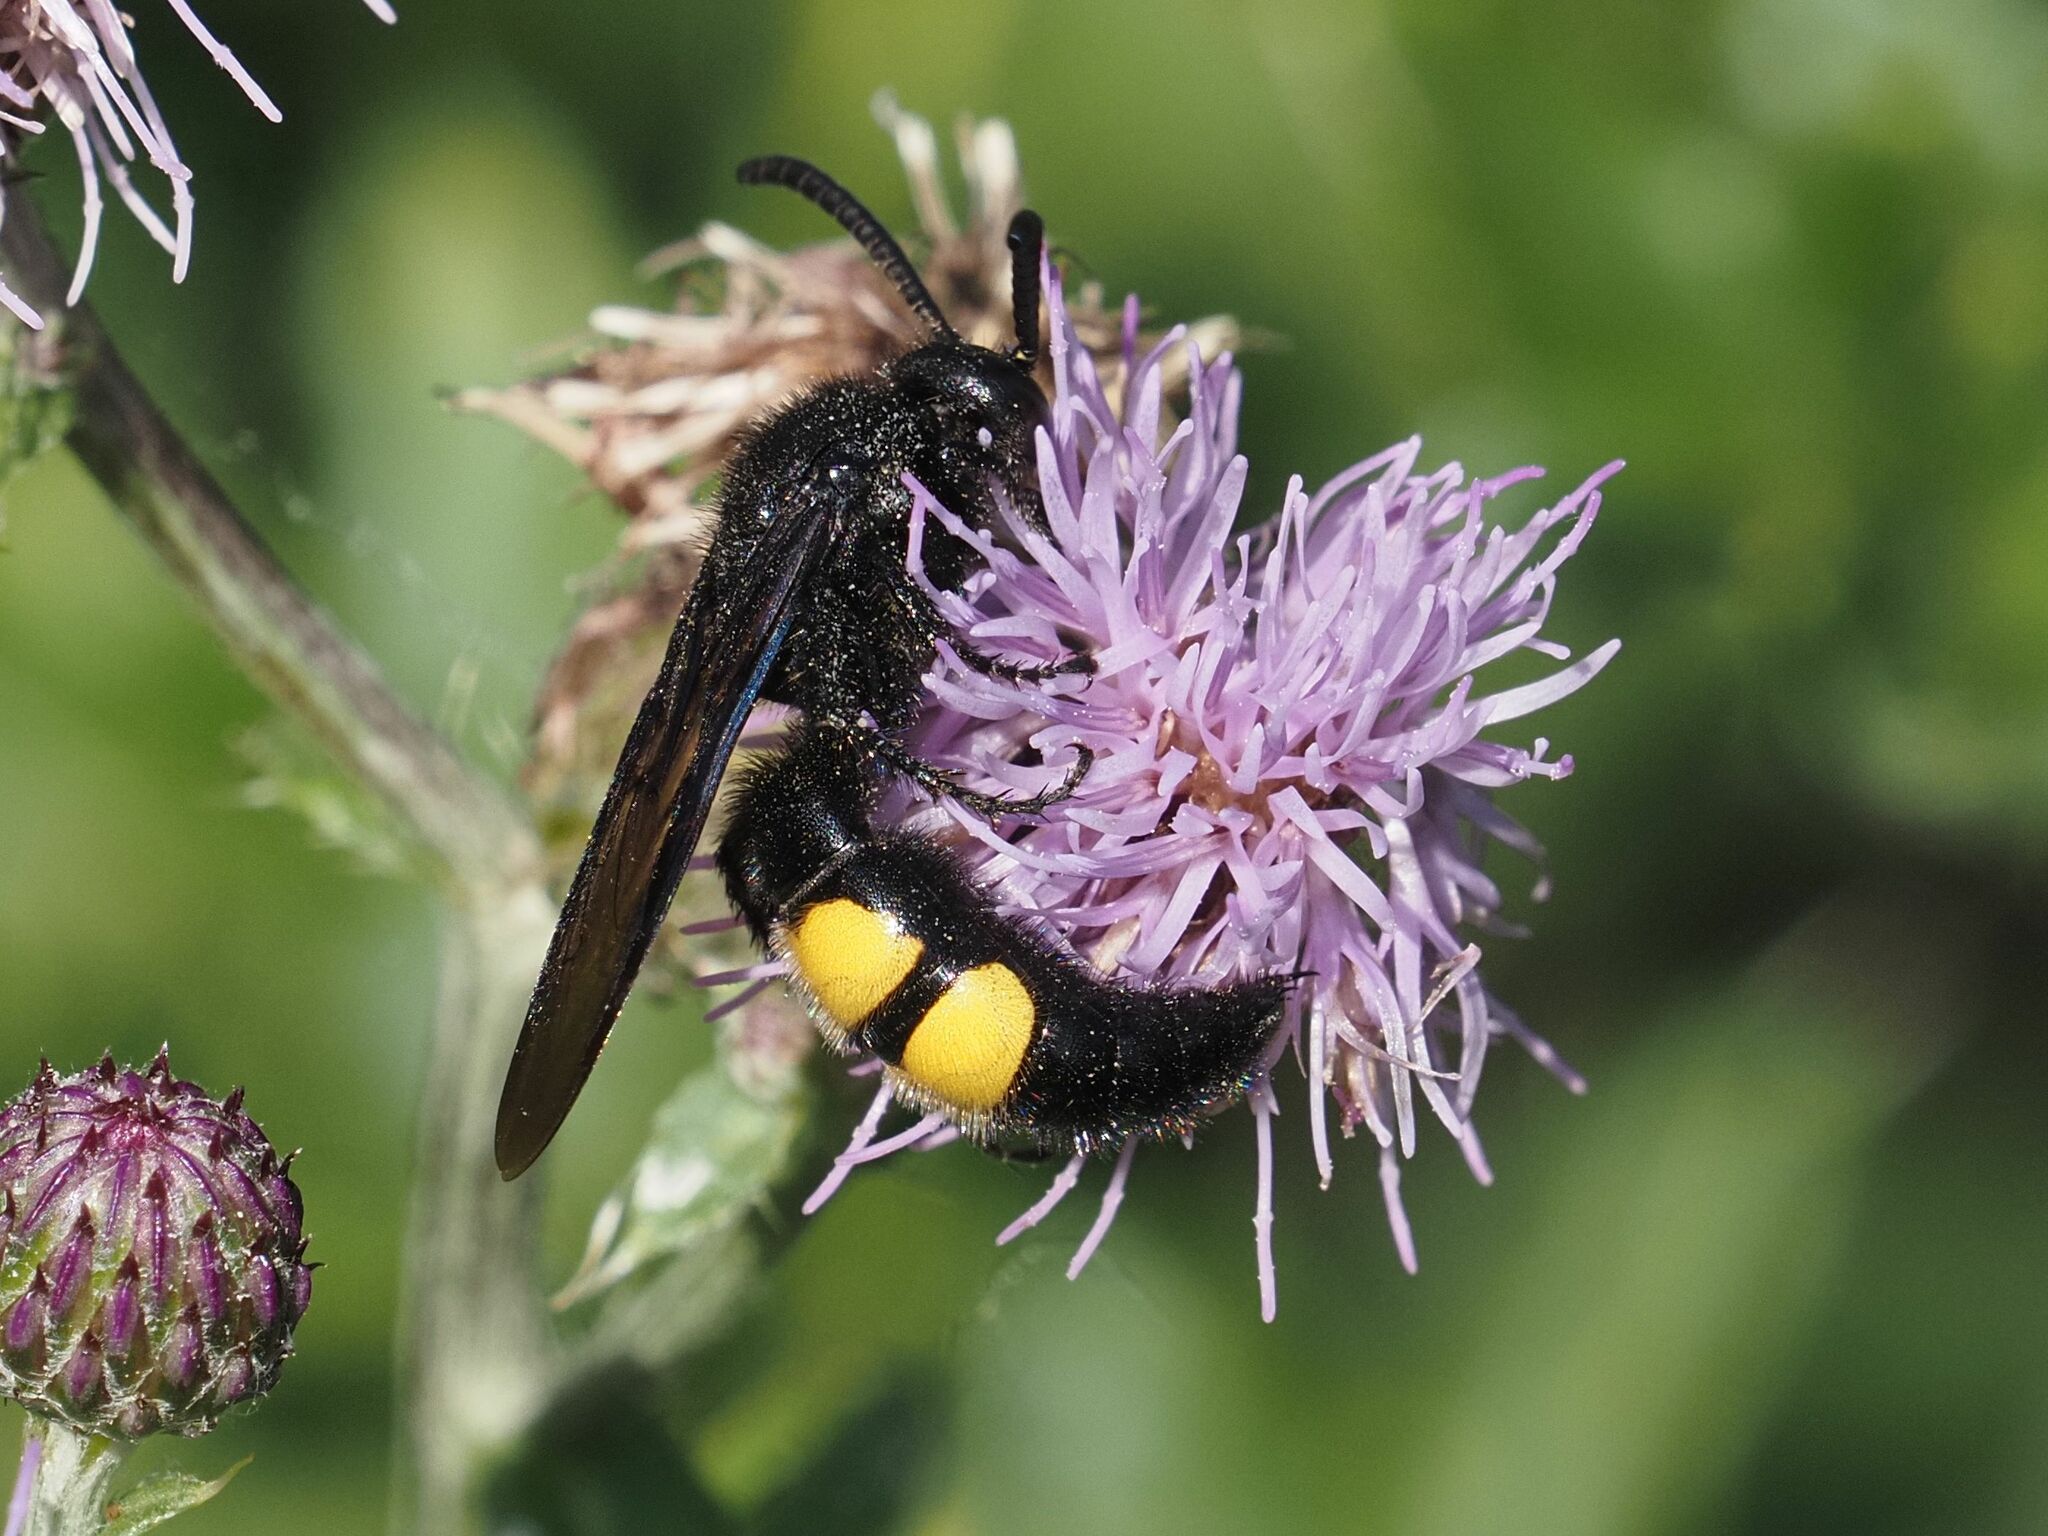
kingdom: Animalia
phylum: Arthropoda
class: Insecta
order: Hymenoptera
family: Scoliidae
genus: Scolia
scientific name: Scolia hirta
